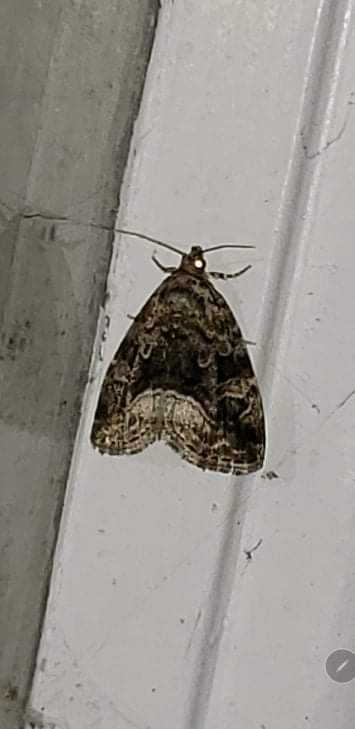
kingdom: Animalia
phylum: Arthropoda
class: Insecta
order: Lepidoptera
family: Noctuidae
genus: Protodeltote
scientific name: Protodeltote muscosula
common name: Large mossy glyph
